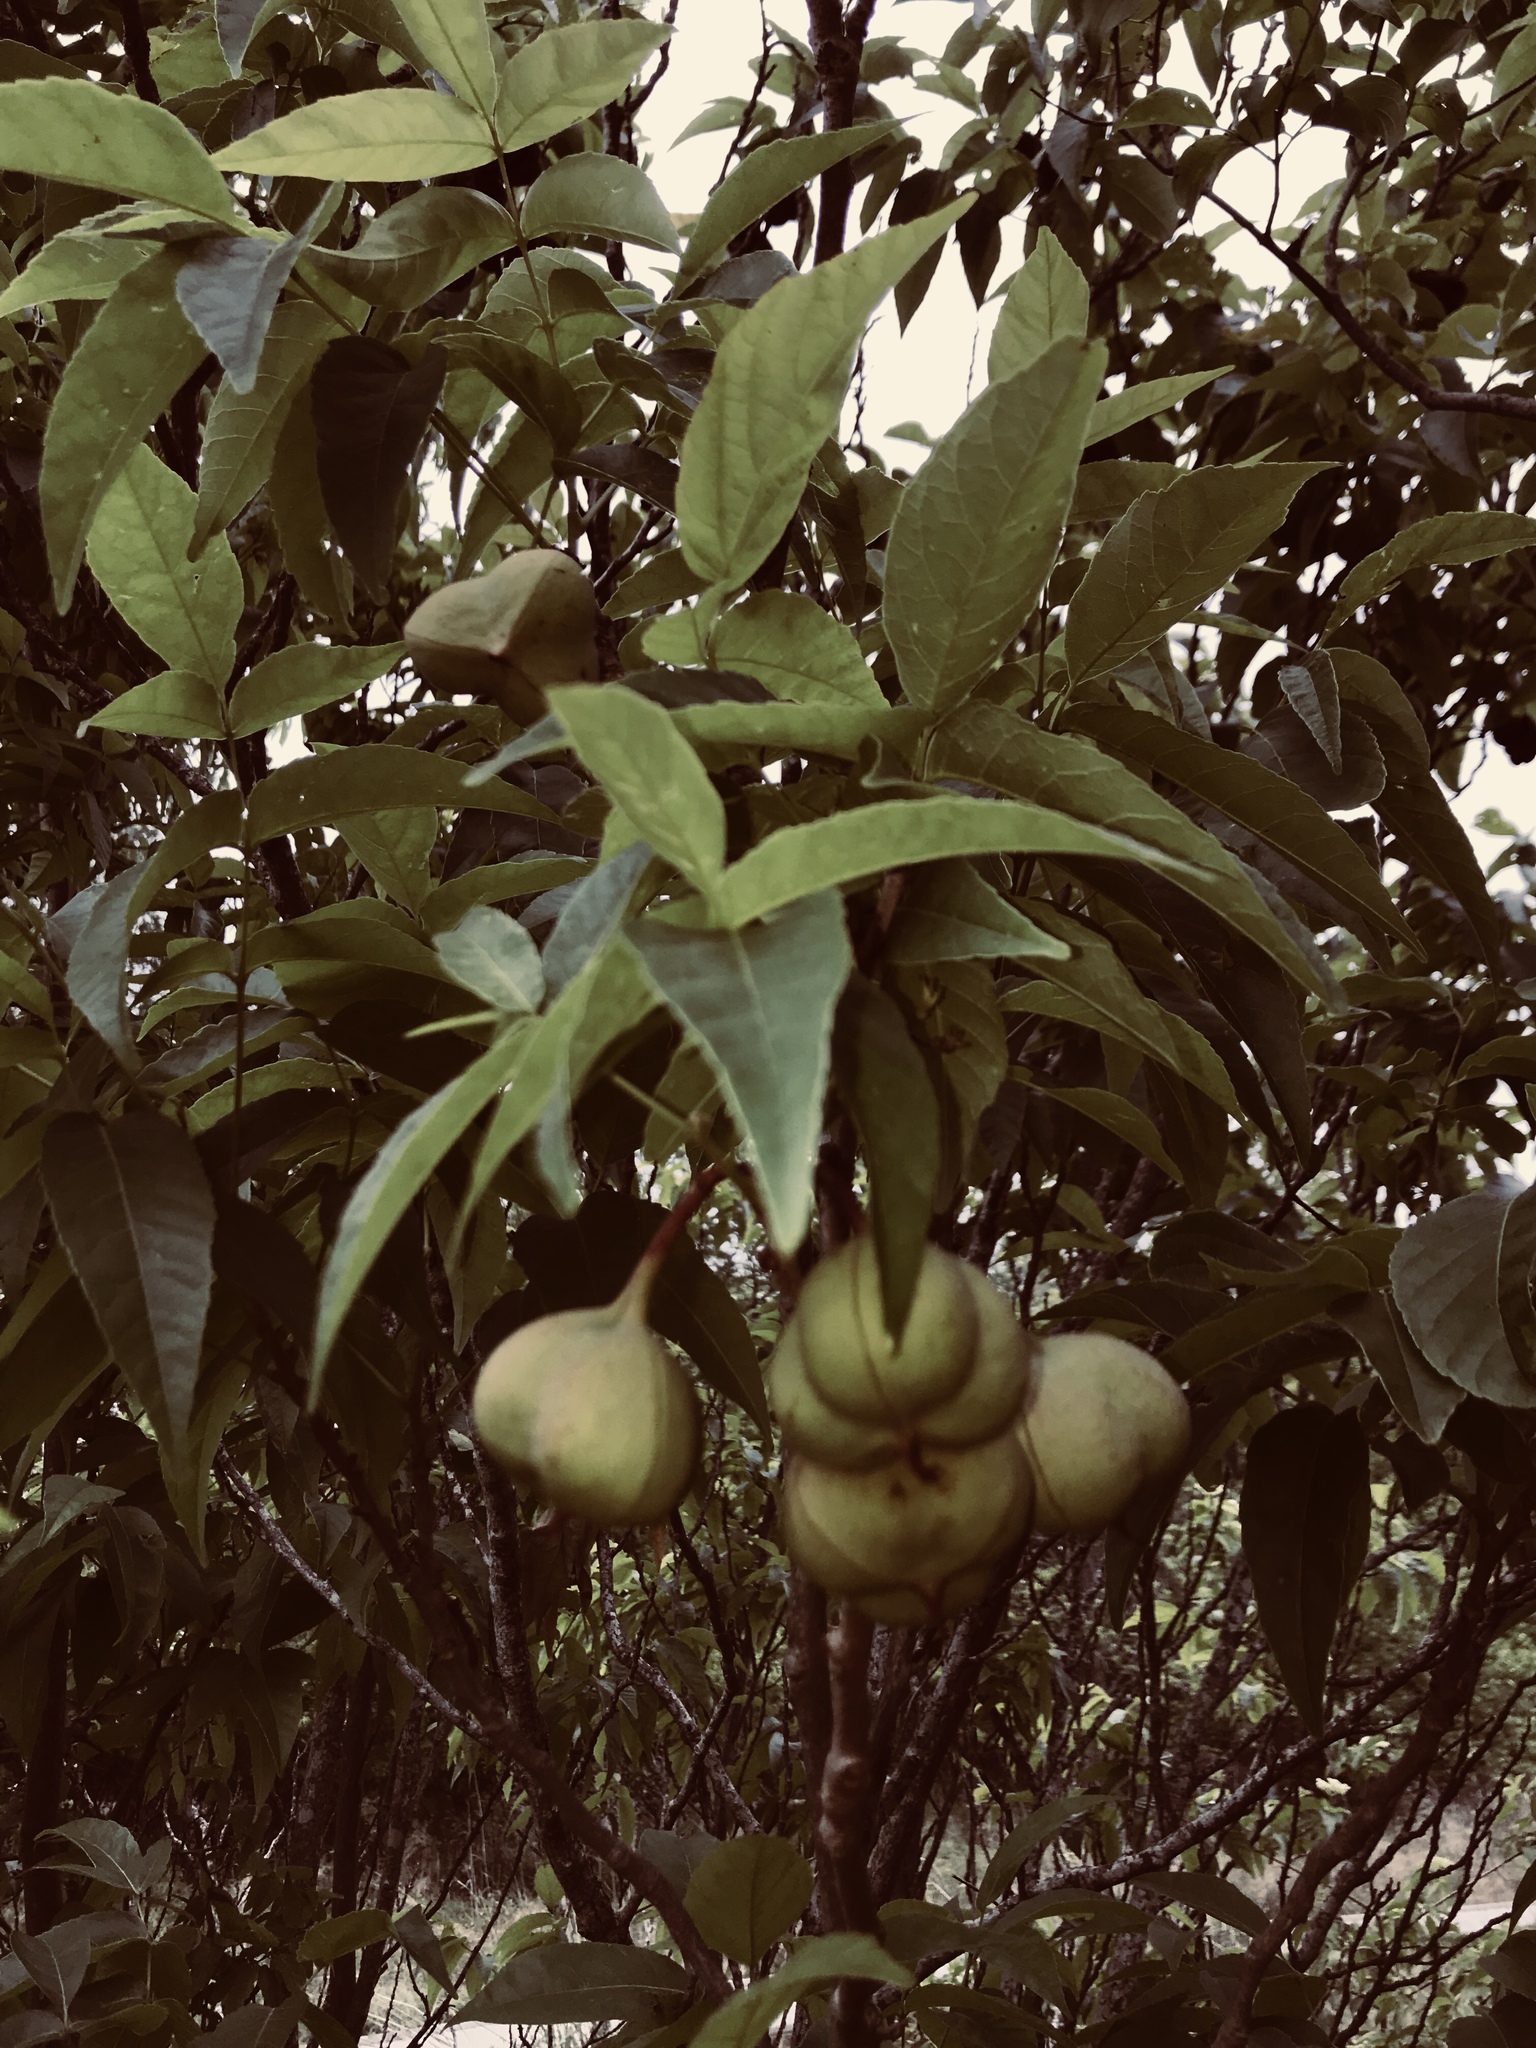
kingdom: Plantae
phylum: Tracheophyta
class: Magnoliopsida
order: Sapindales
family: Sapindaceae
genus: Ungnadia
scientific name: Ungnadia speciosa
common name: Texas-buckeye
